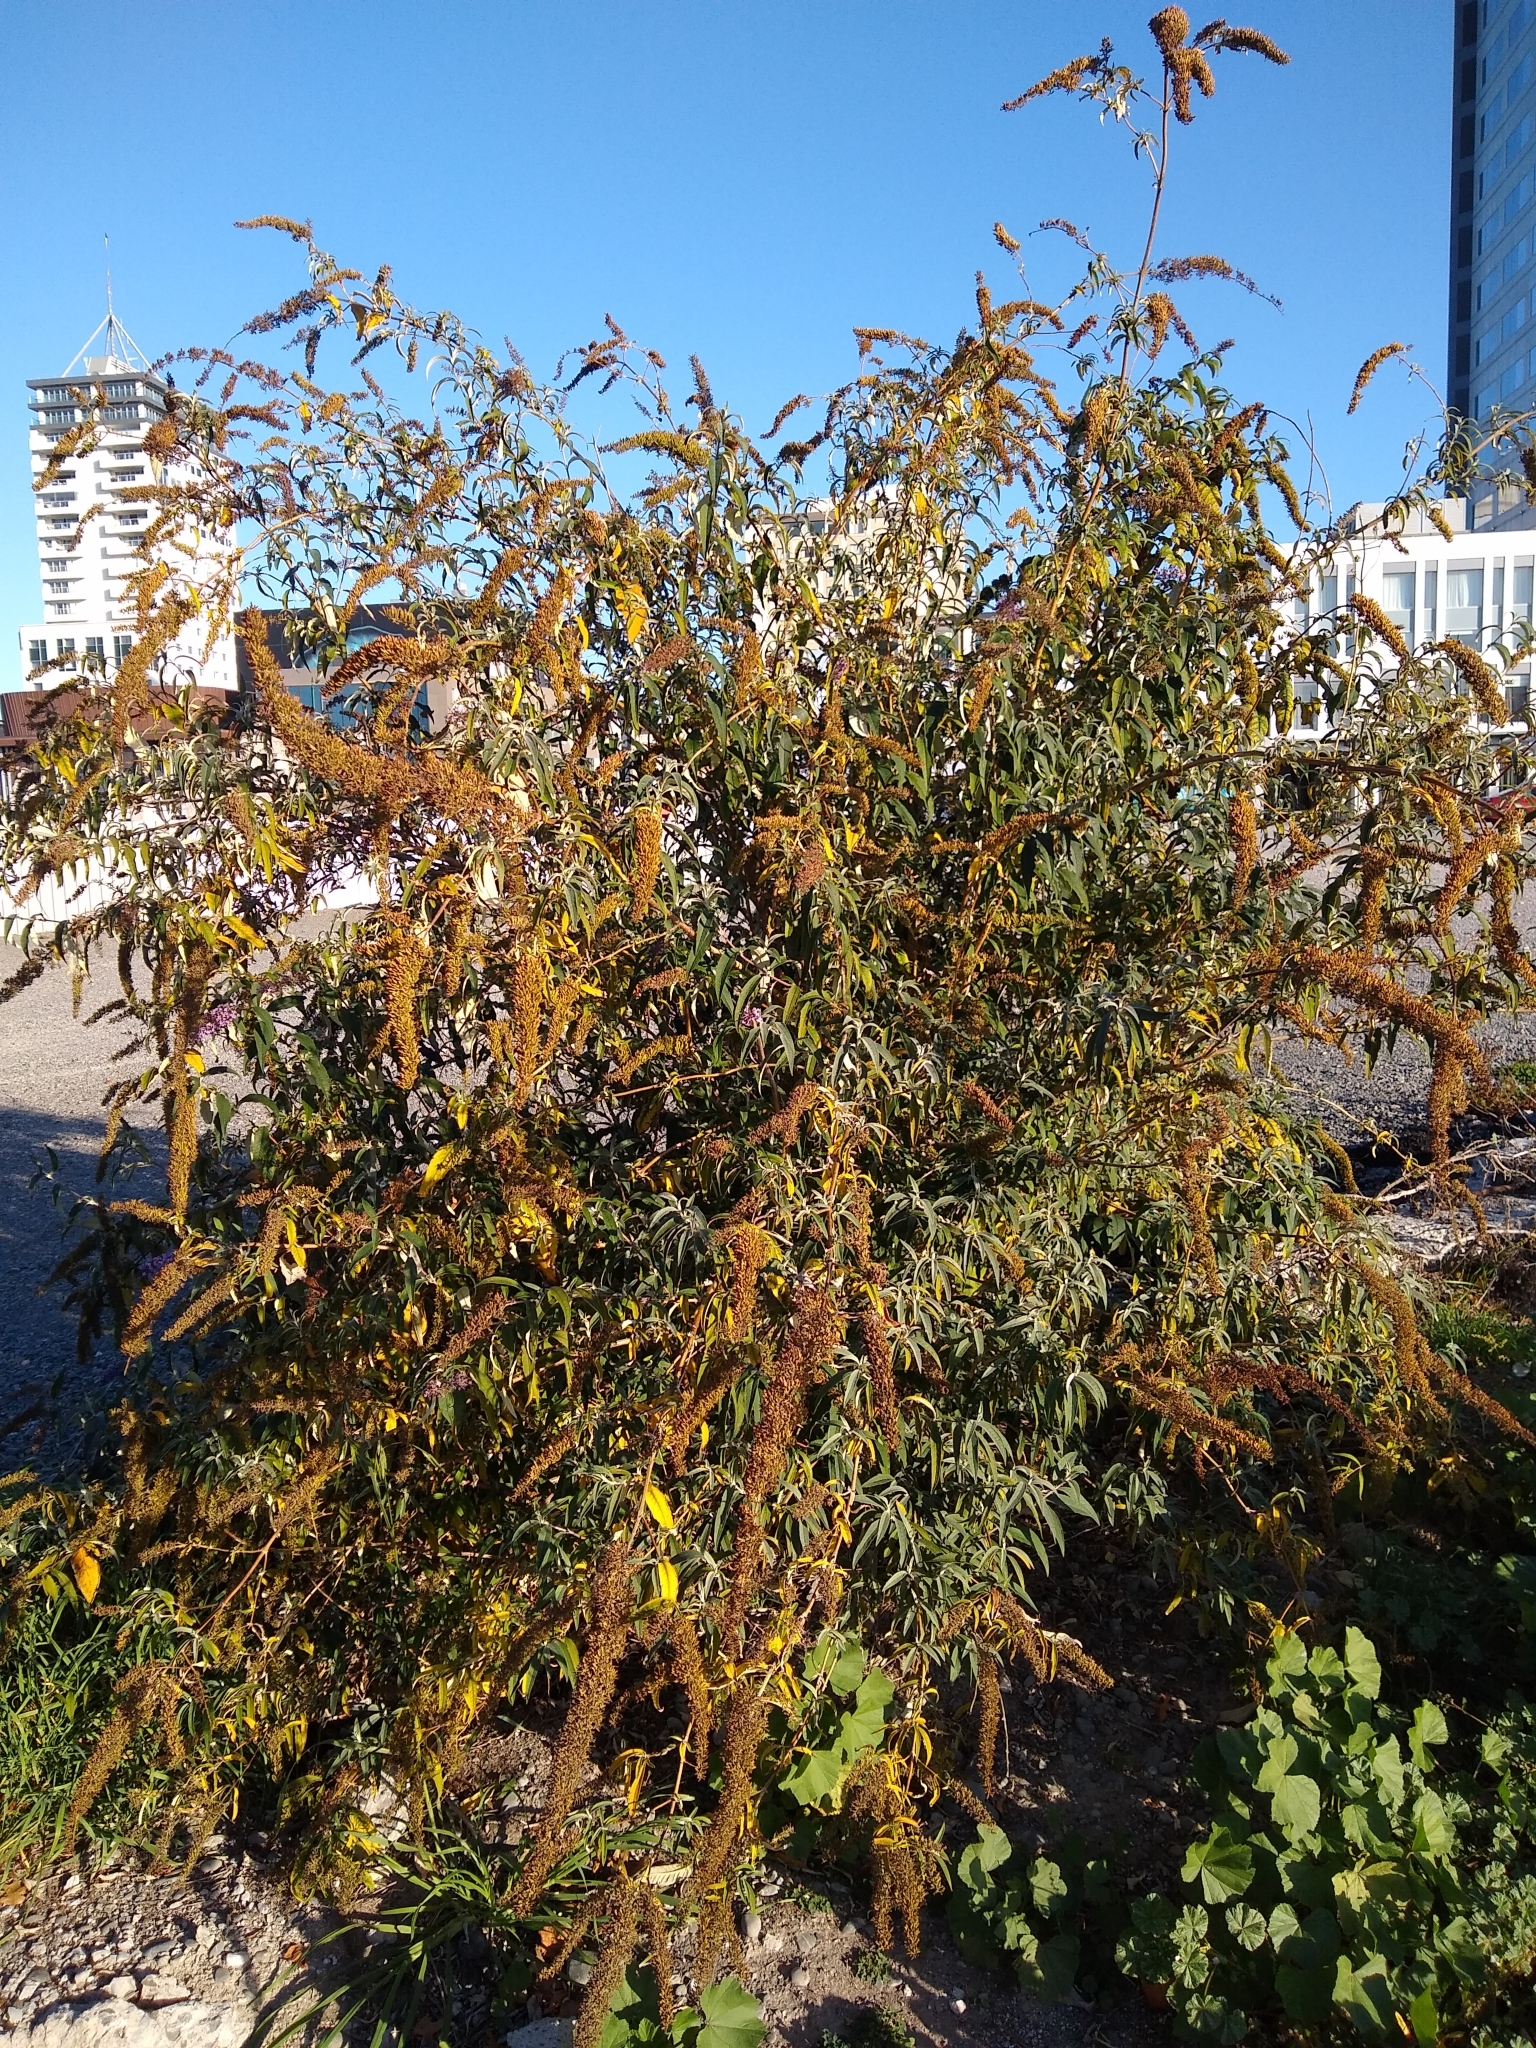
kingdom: Plantae
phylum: Tracheophyta
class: Magnoliopsida
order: Lamiales
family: Scrophulariaceae
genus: Buddleja
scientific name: Buddleja davidii
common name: Butterfly-bush
